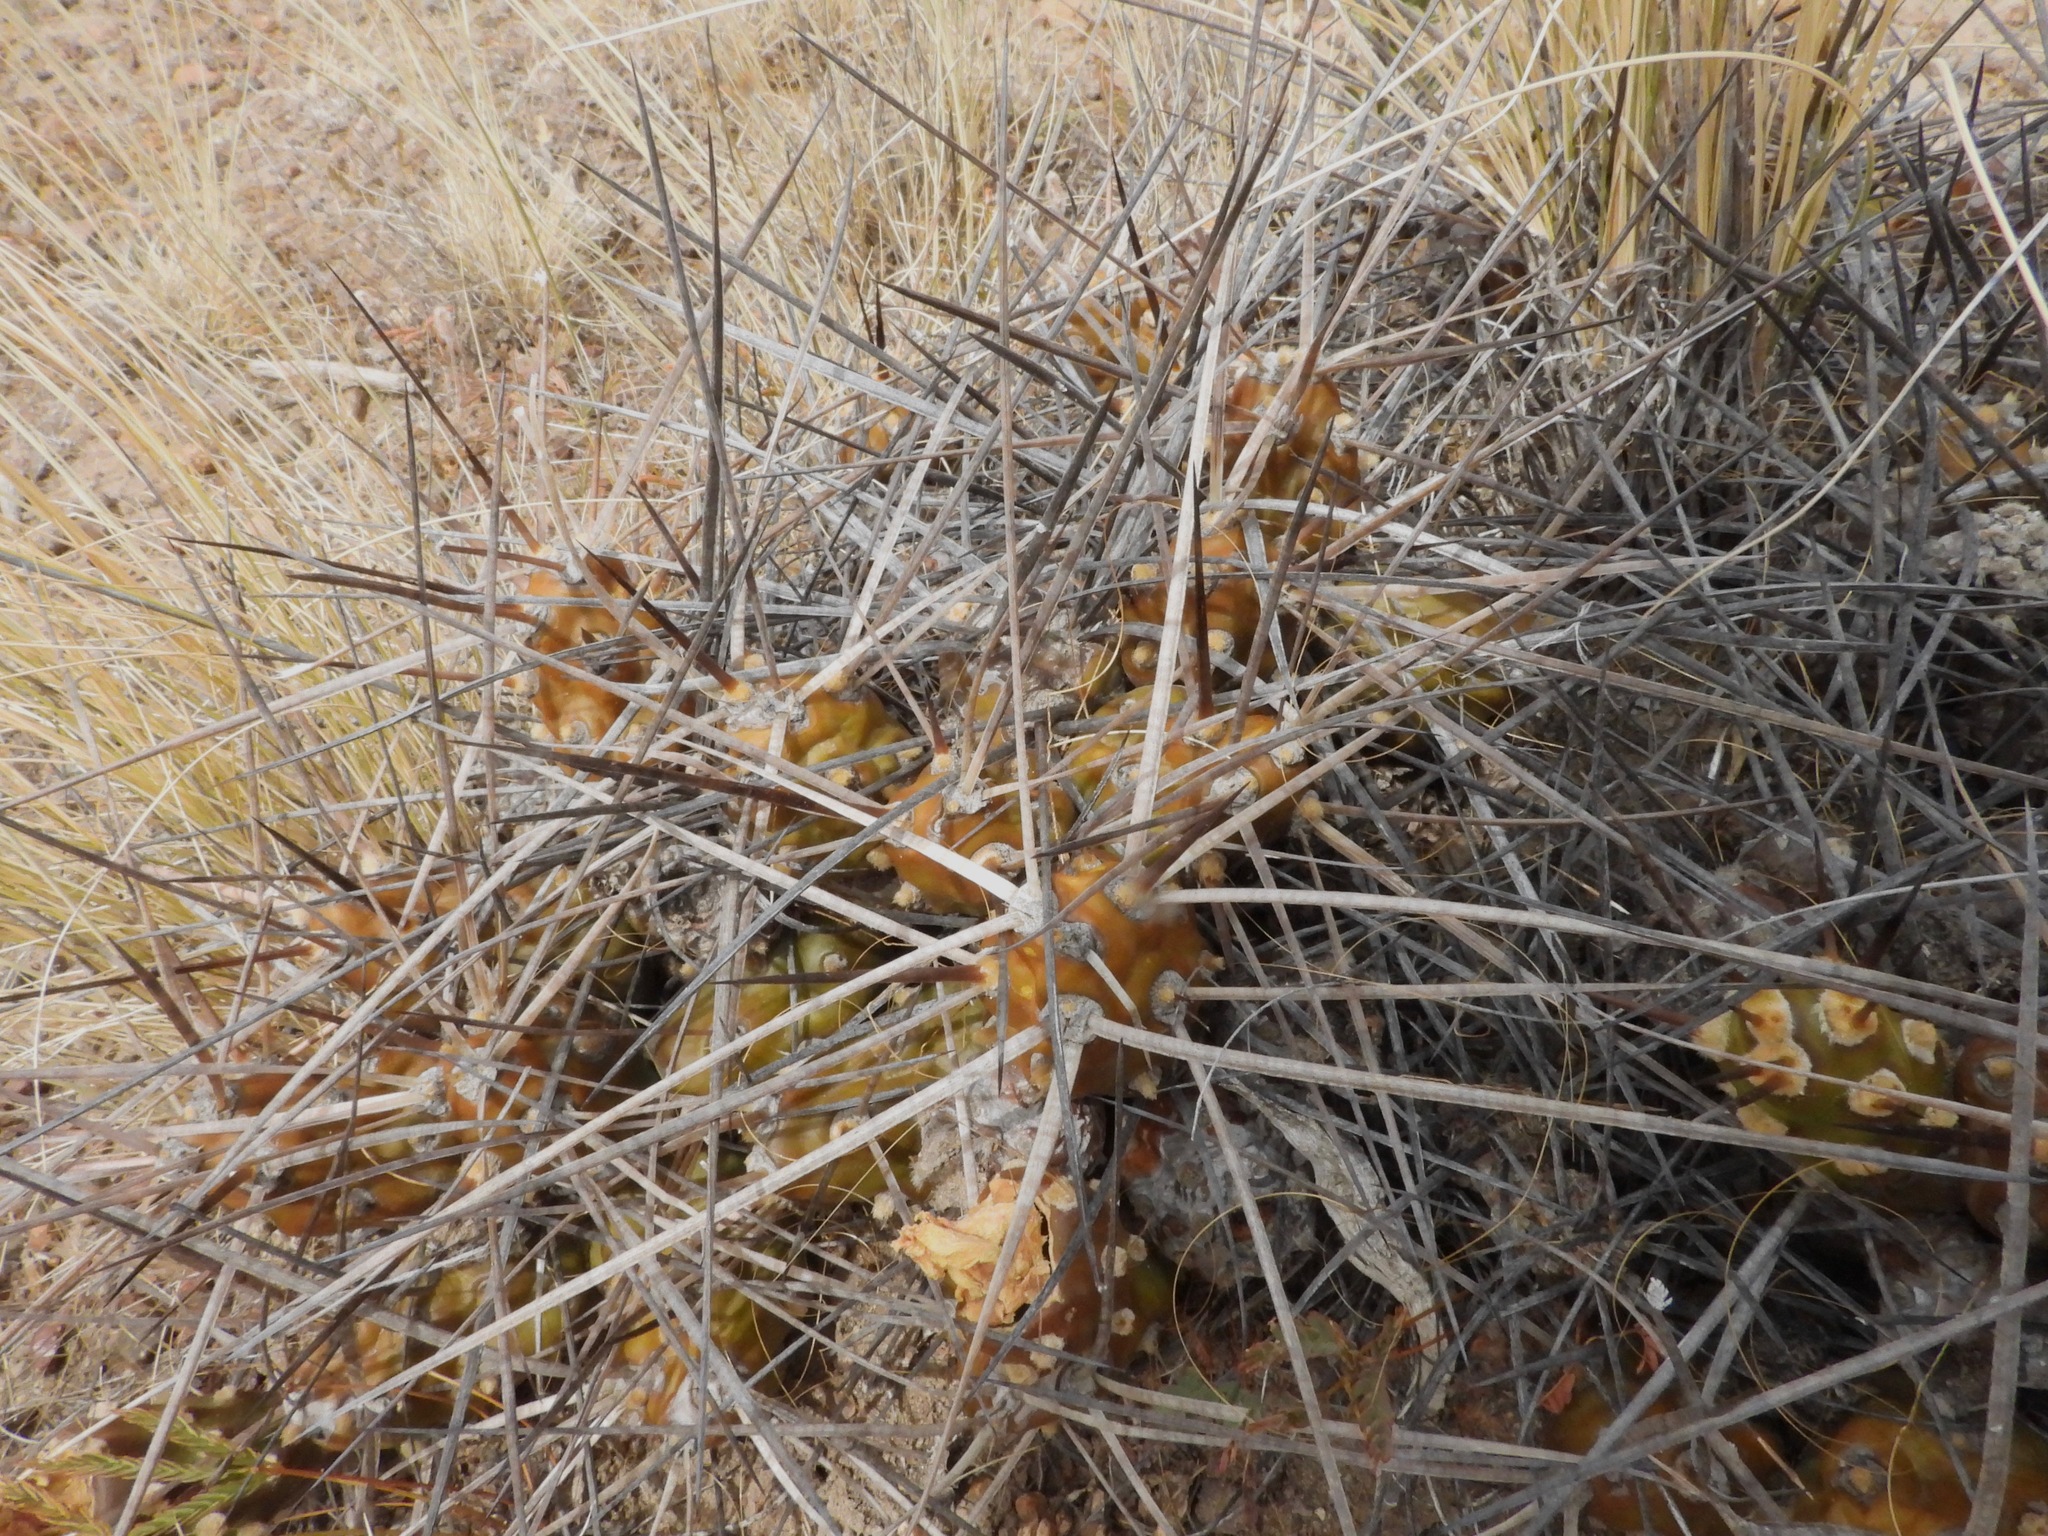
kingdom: Plantae
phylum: Tracheophyta
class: Magnoliopsida
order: Caryophyllales
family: Cactaceae
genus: Maihueniopsis
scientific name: Maihueniopsis hickenii
